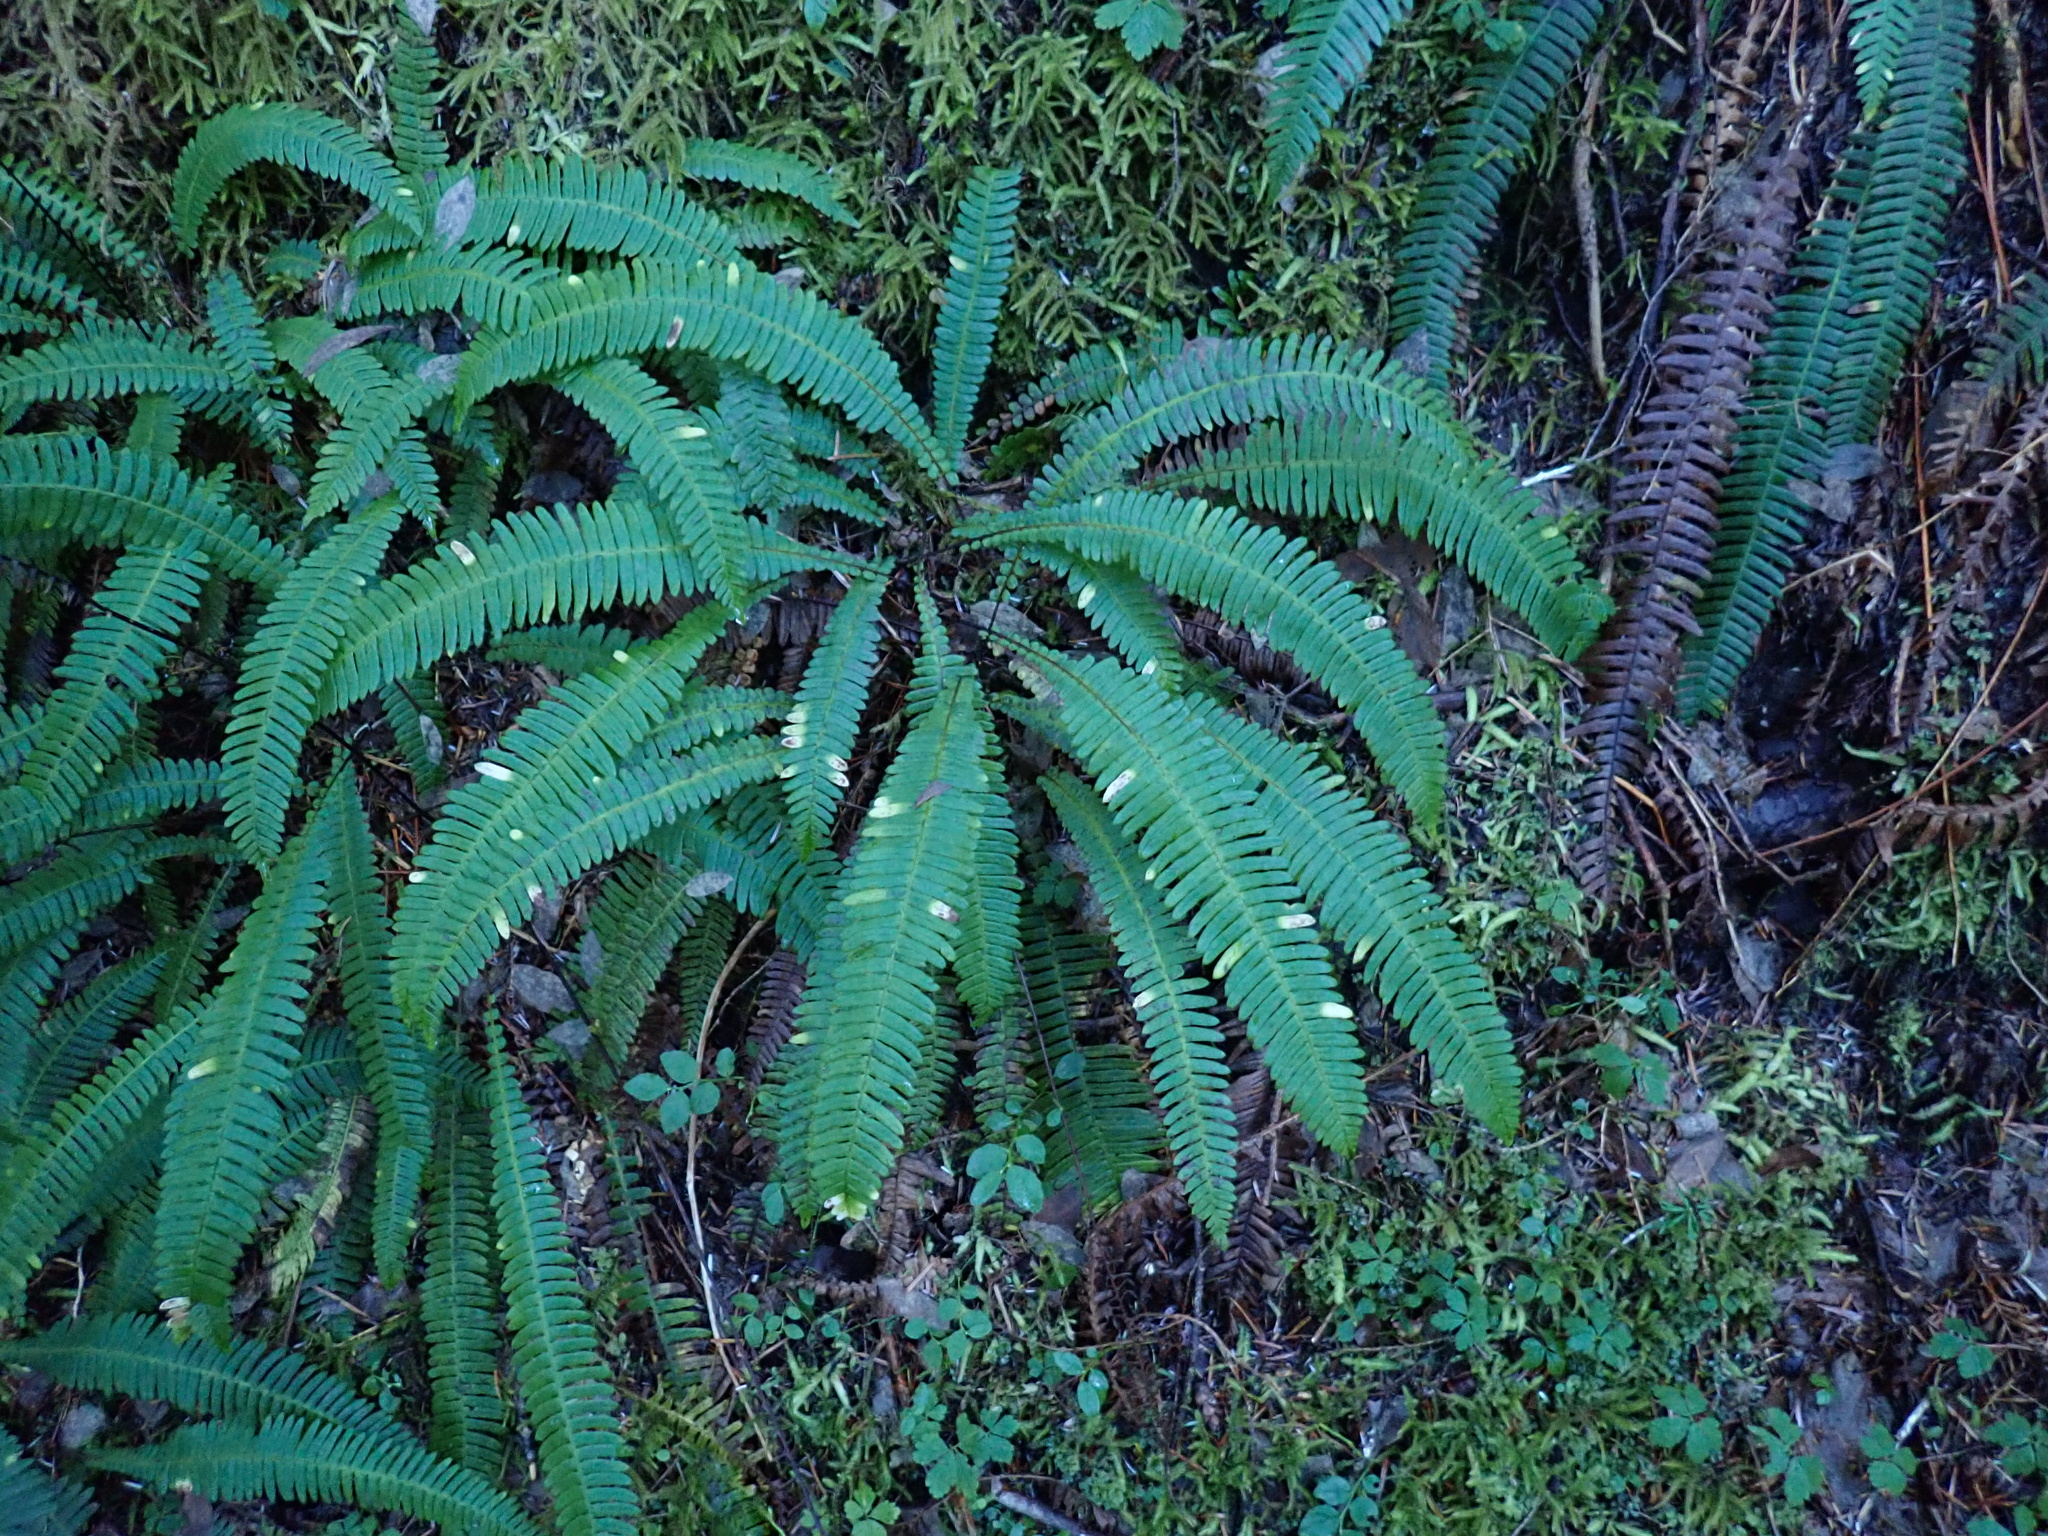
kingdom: Plantae
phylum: Tracheophyta
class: Polypodiopsida
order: Polypodiales
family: Blechnaceae
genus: Struthiopteris
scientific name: Struthiopteris spicant
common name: Deer fern
